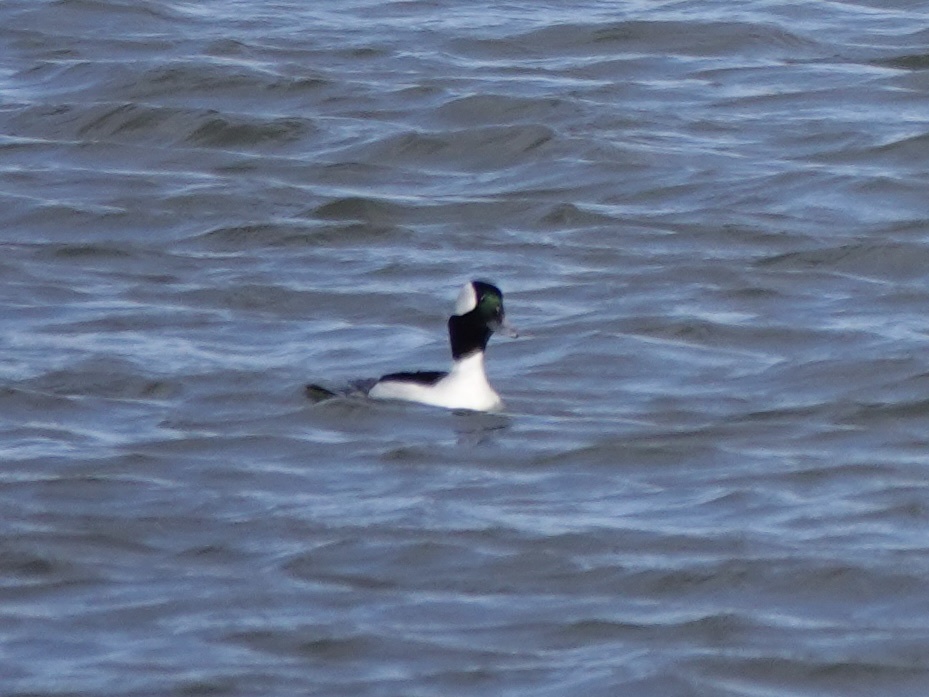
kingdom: Animalia
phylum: Chordata
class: Aves
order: Anseriformes
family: Anatidae
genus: Bucephala
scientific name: Bucephala albeola
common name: Bufflehead
